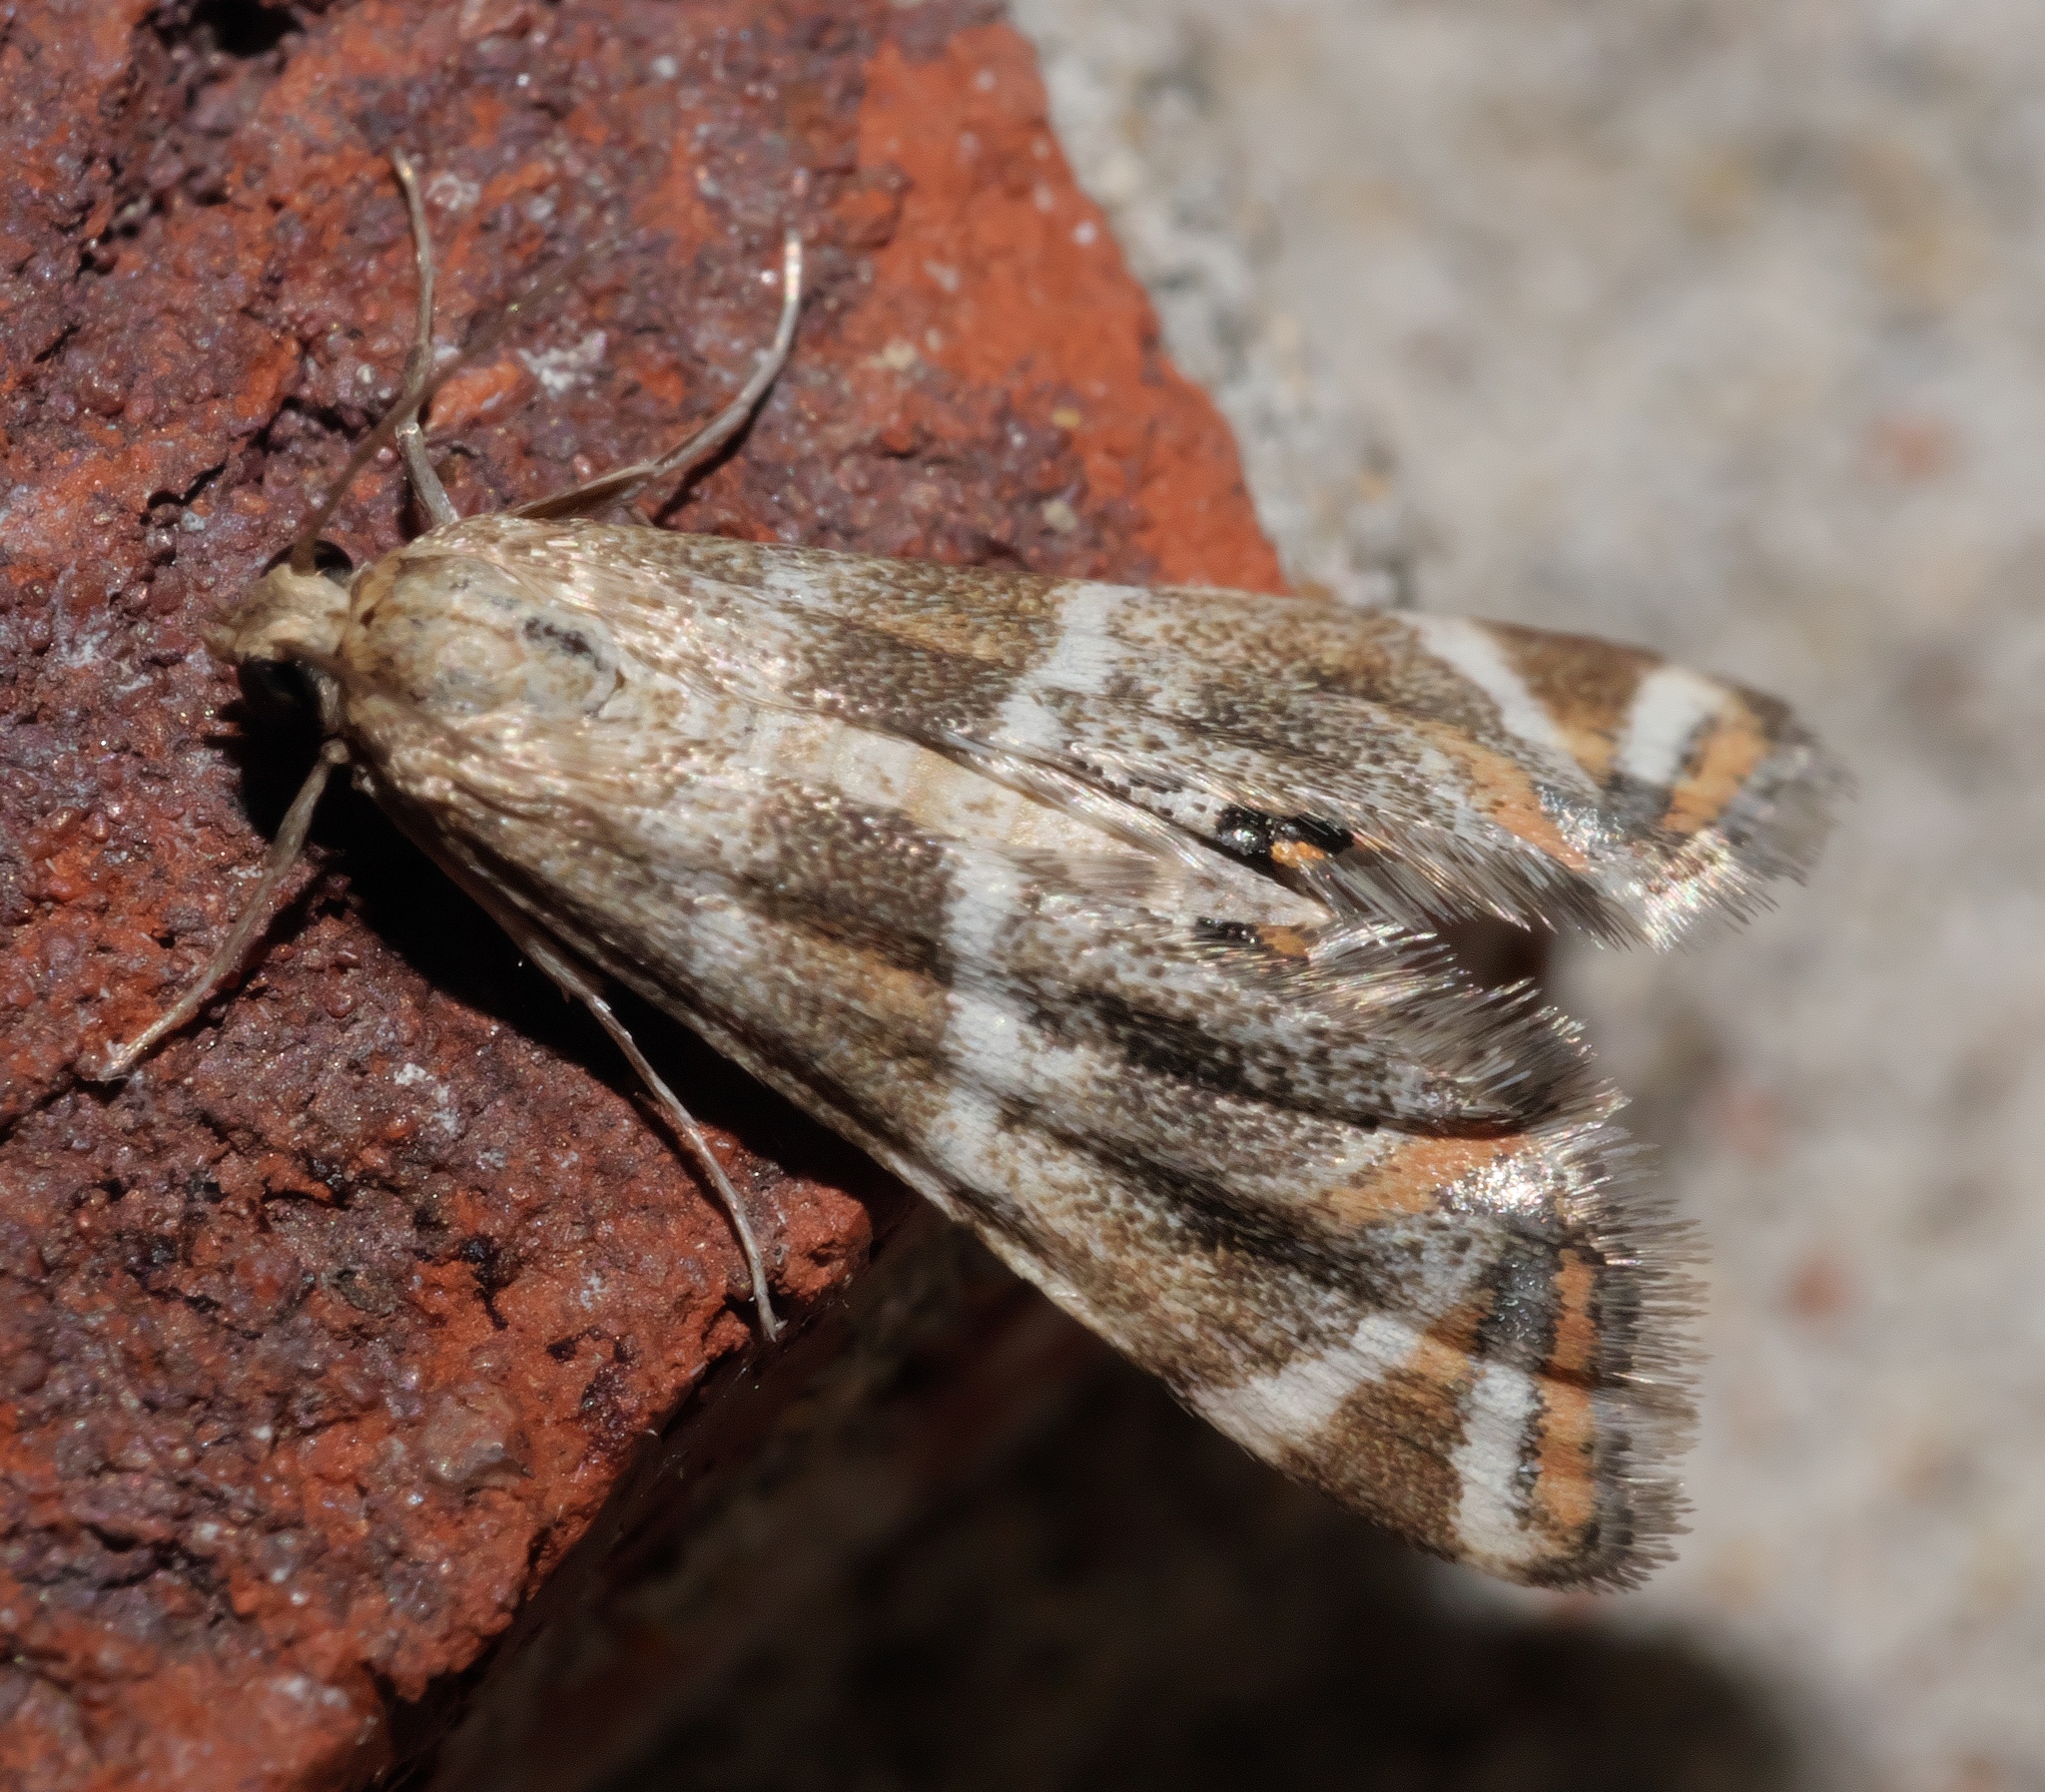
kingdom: Animalia
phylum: Arthropoda
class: Insecta
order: Lepidoptera
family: Crambidae
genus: Petrophila
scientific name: Petrophila jaliscalis
